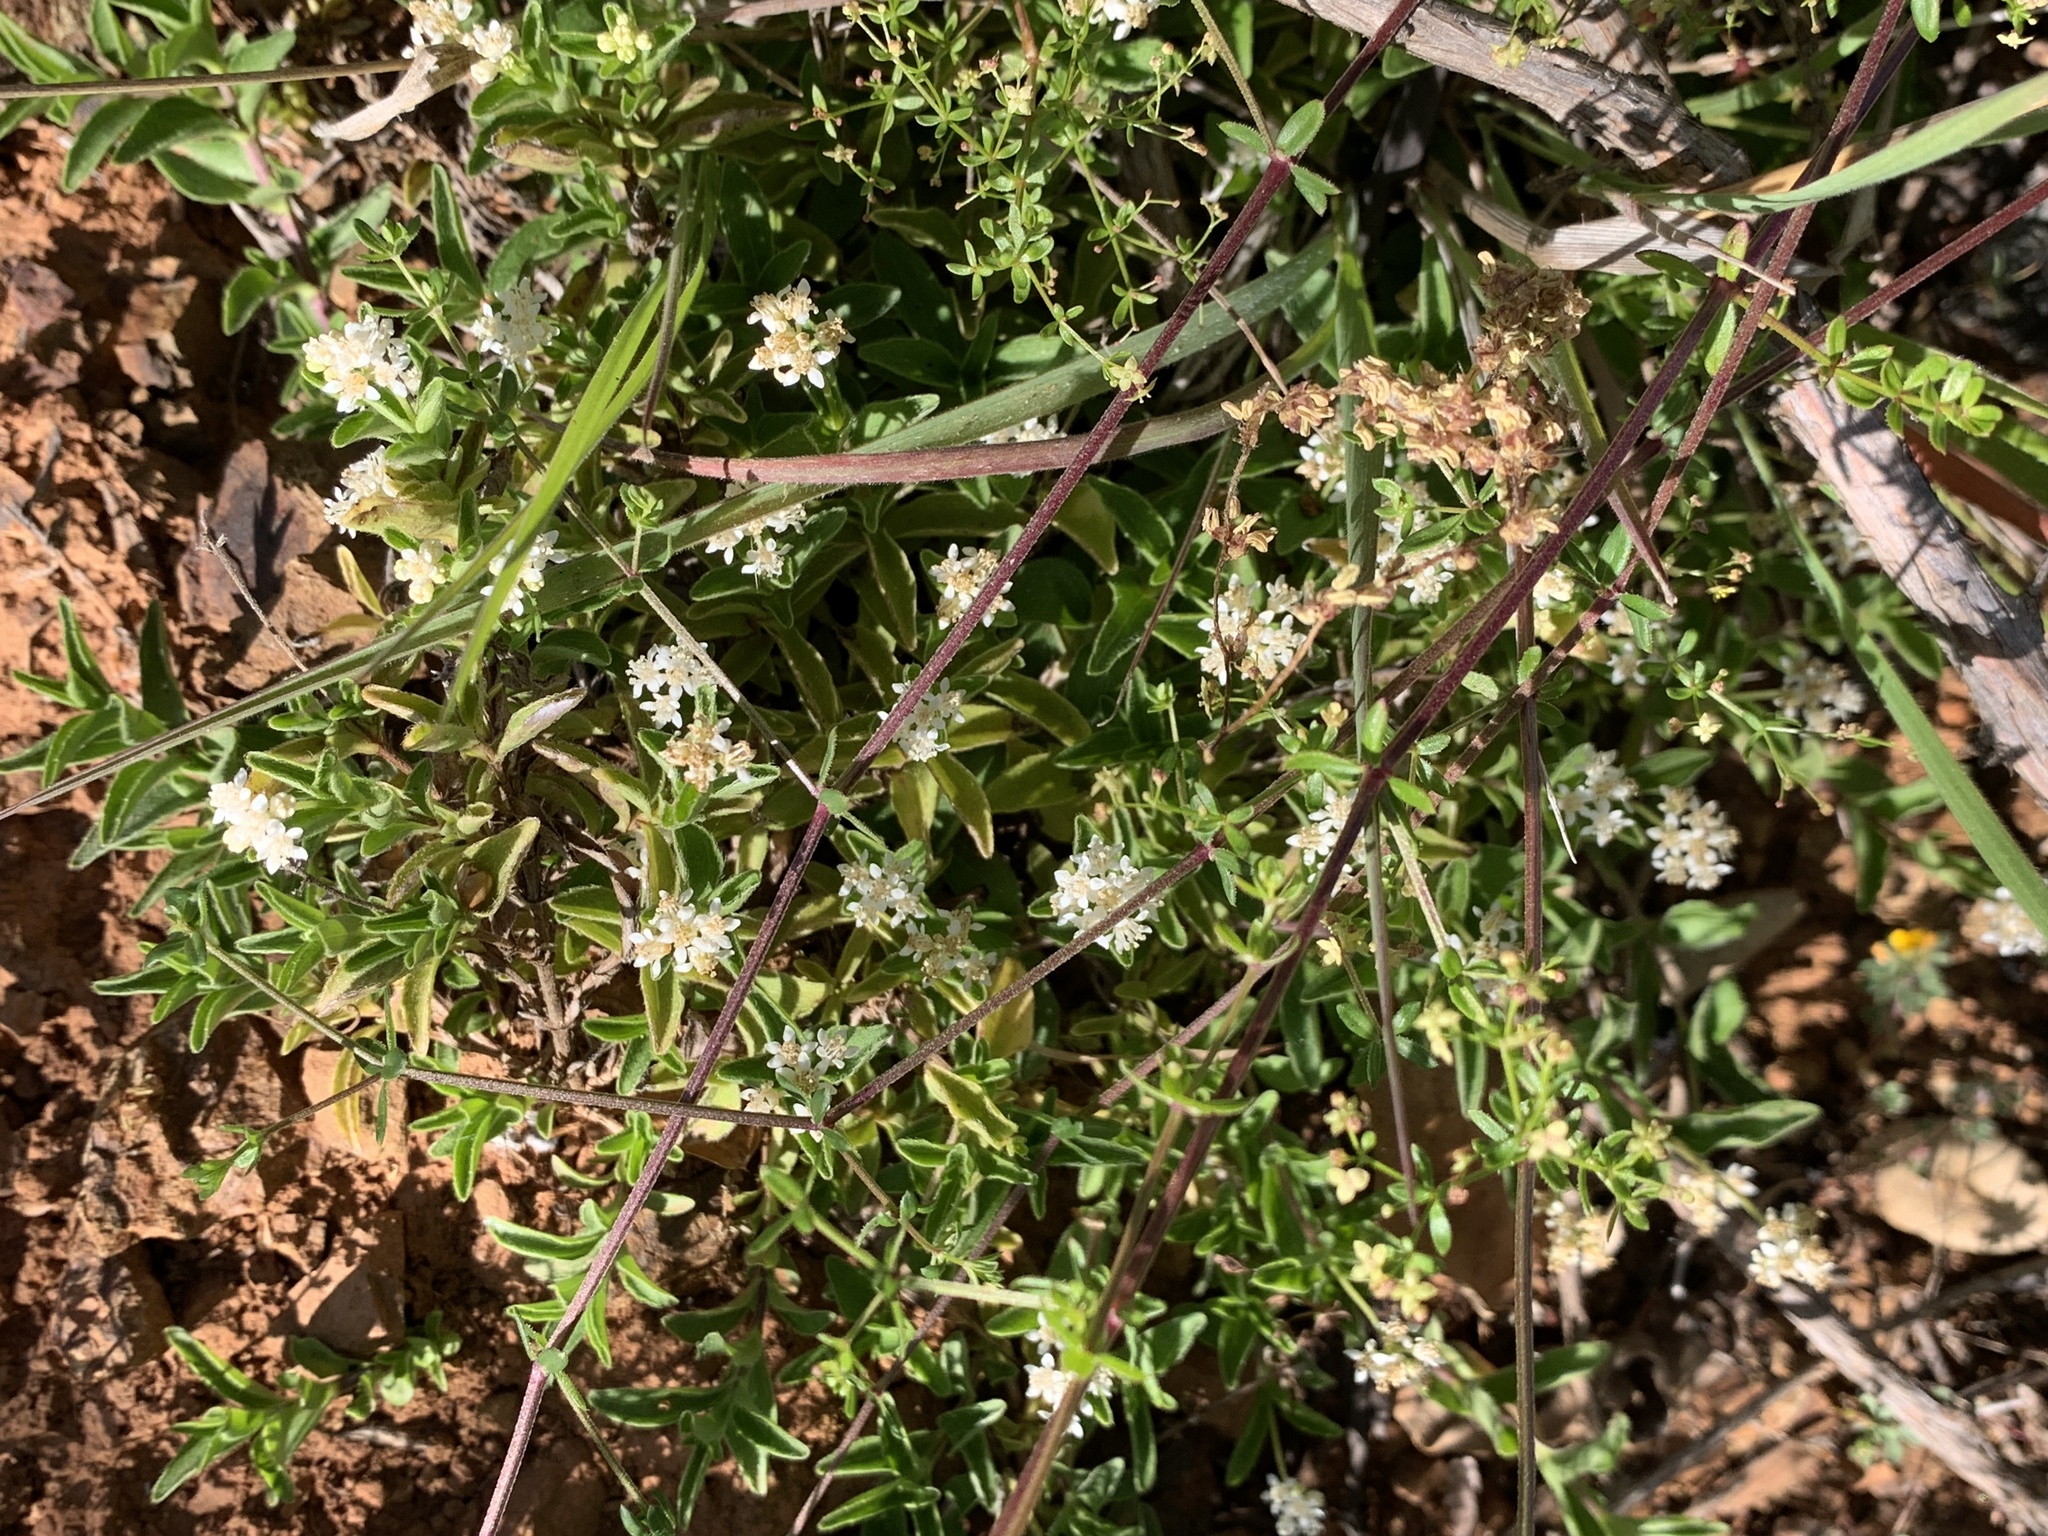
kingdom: Plantae
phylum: Tracheophyta
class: Magnoliopsida
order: Cornales
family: Hydrangeaceae
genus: Whipplea
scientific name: Whipplea modesta
